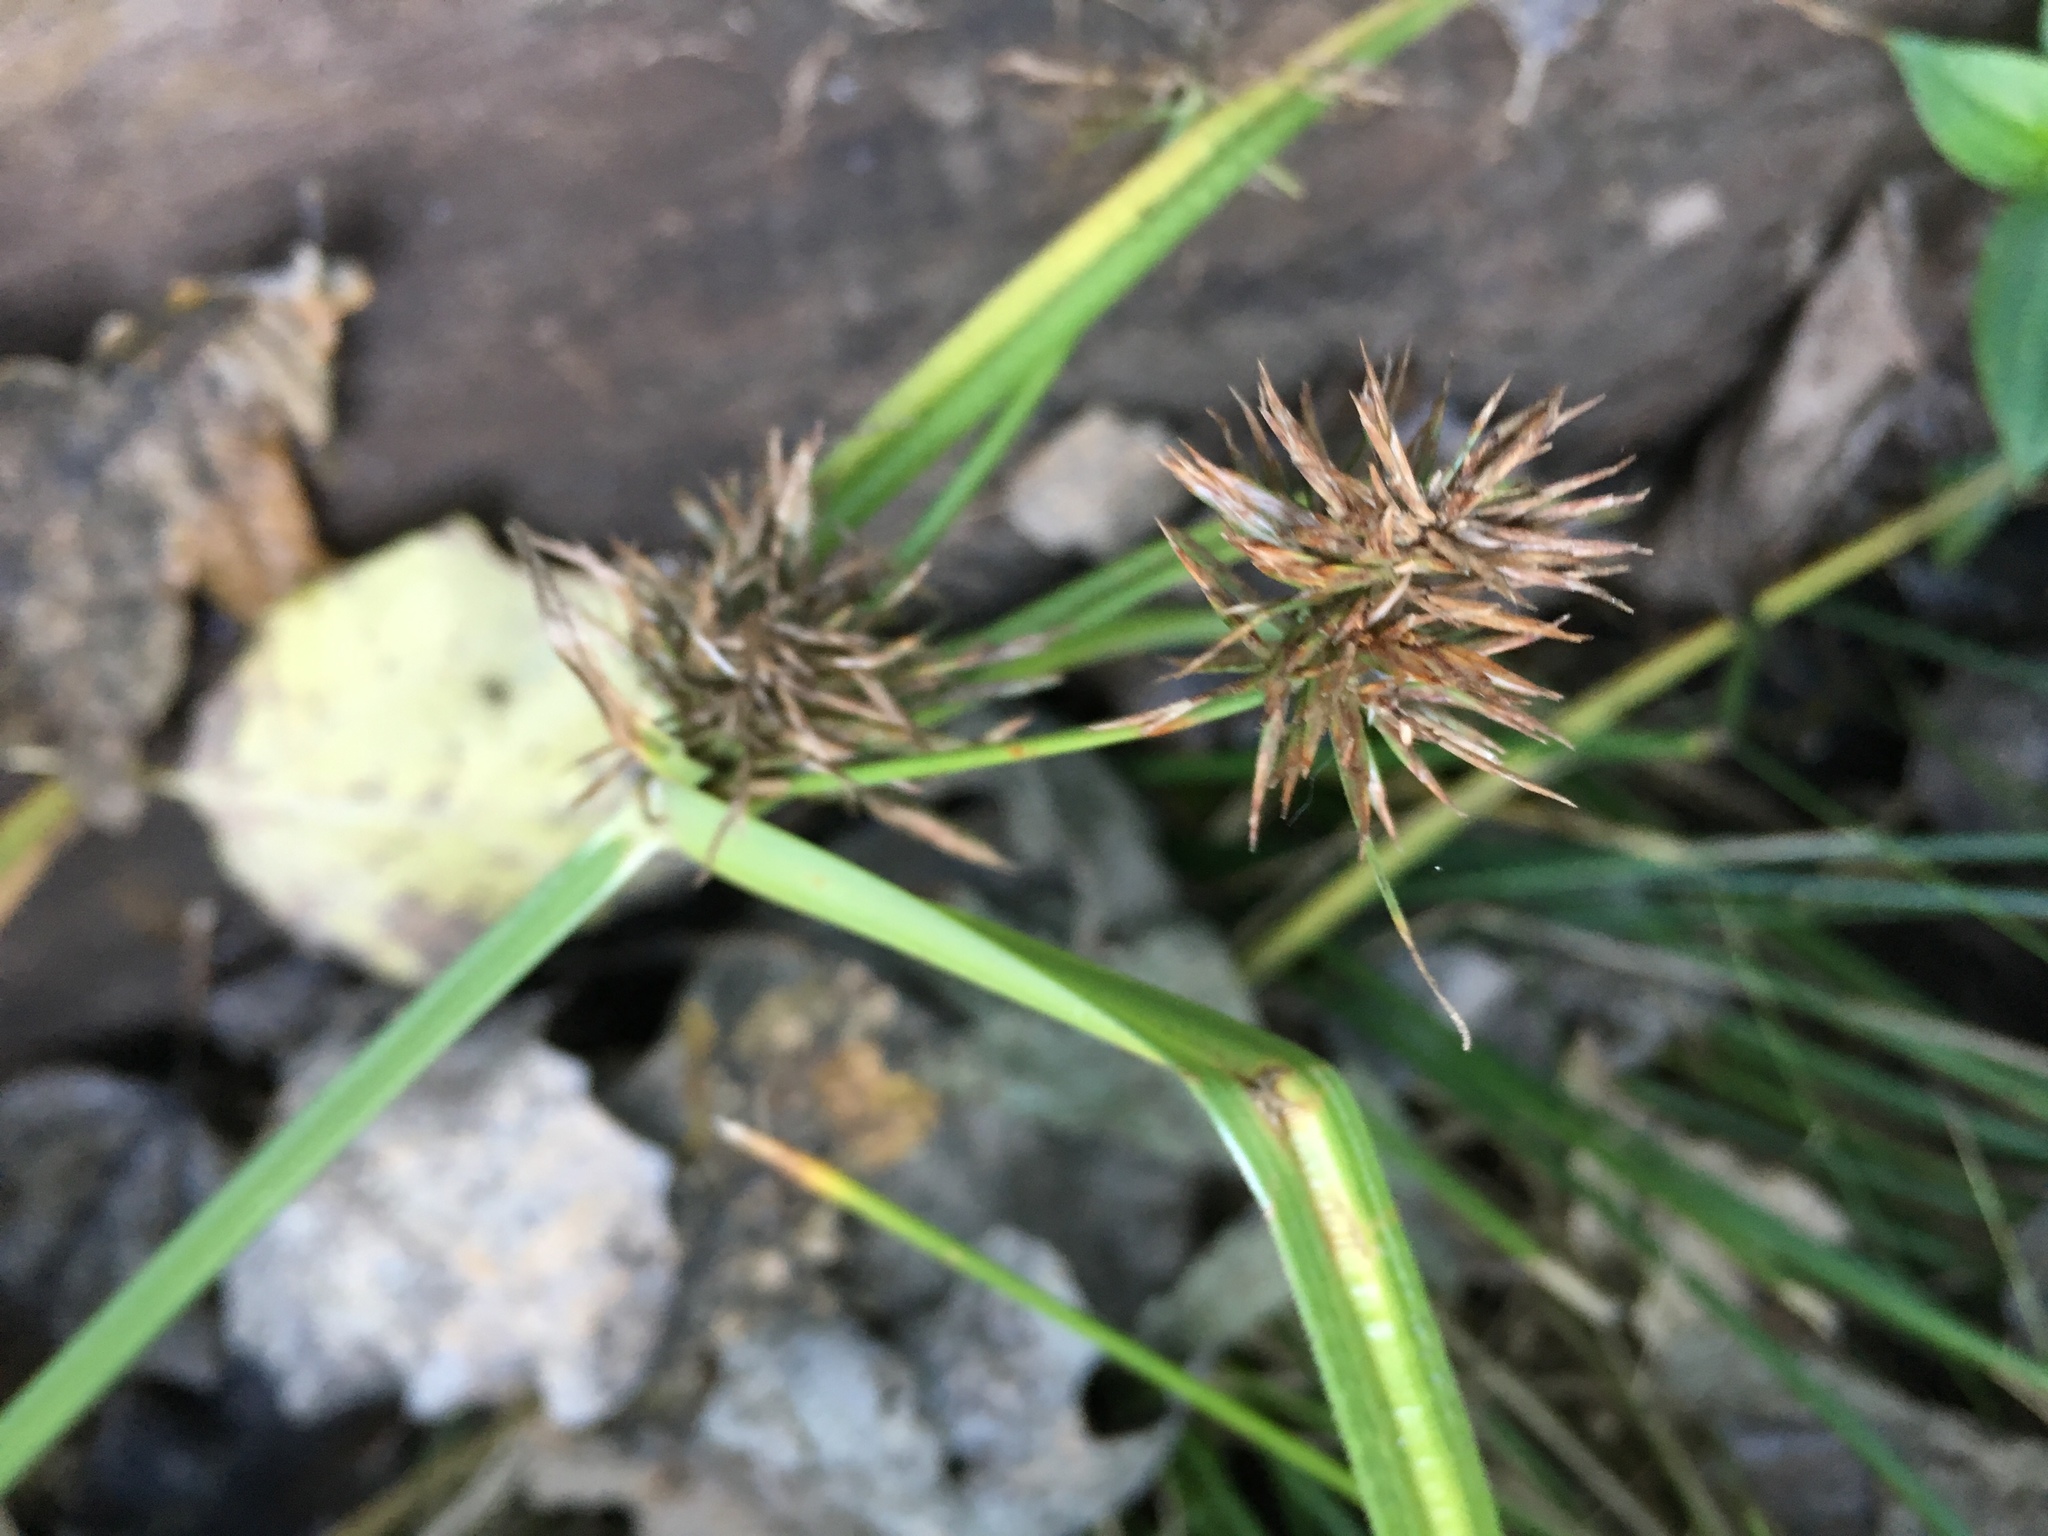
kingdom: Plantae
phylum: Tracheophyta
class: Liliopsida
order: Poales
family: Cyperaceae
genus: Cyperus
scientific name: Cyperus congestus
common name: Dense flat sedge
